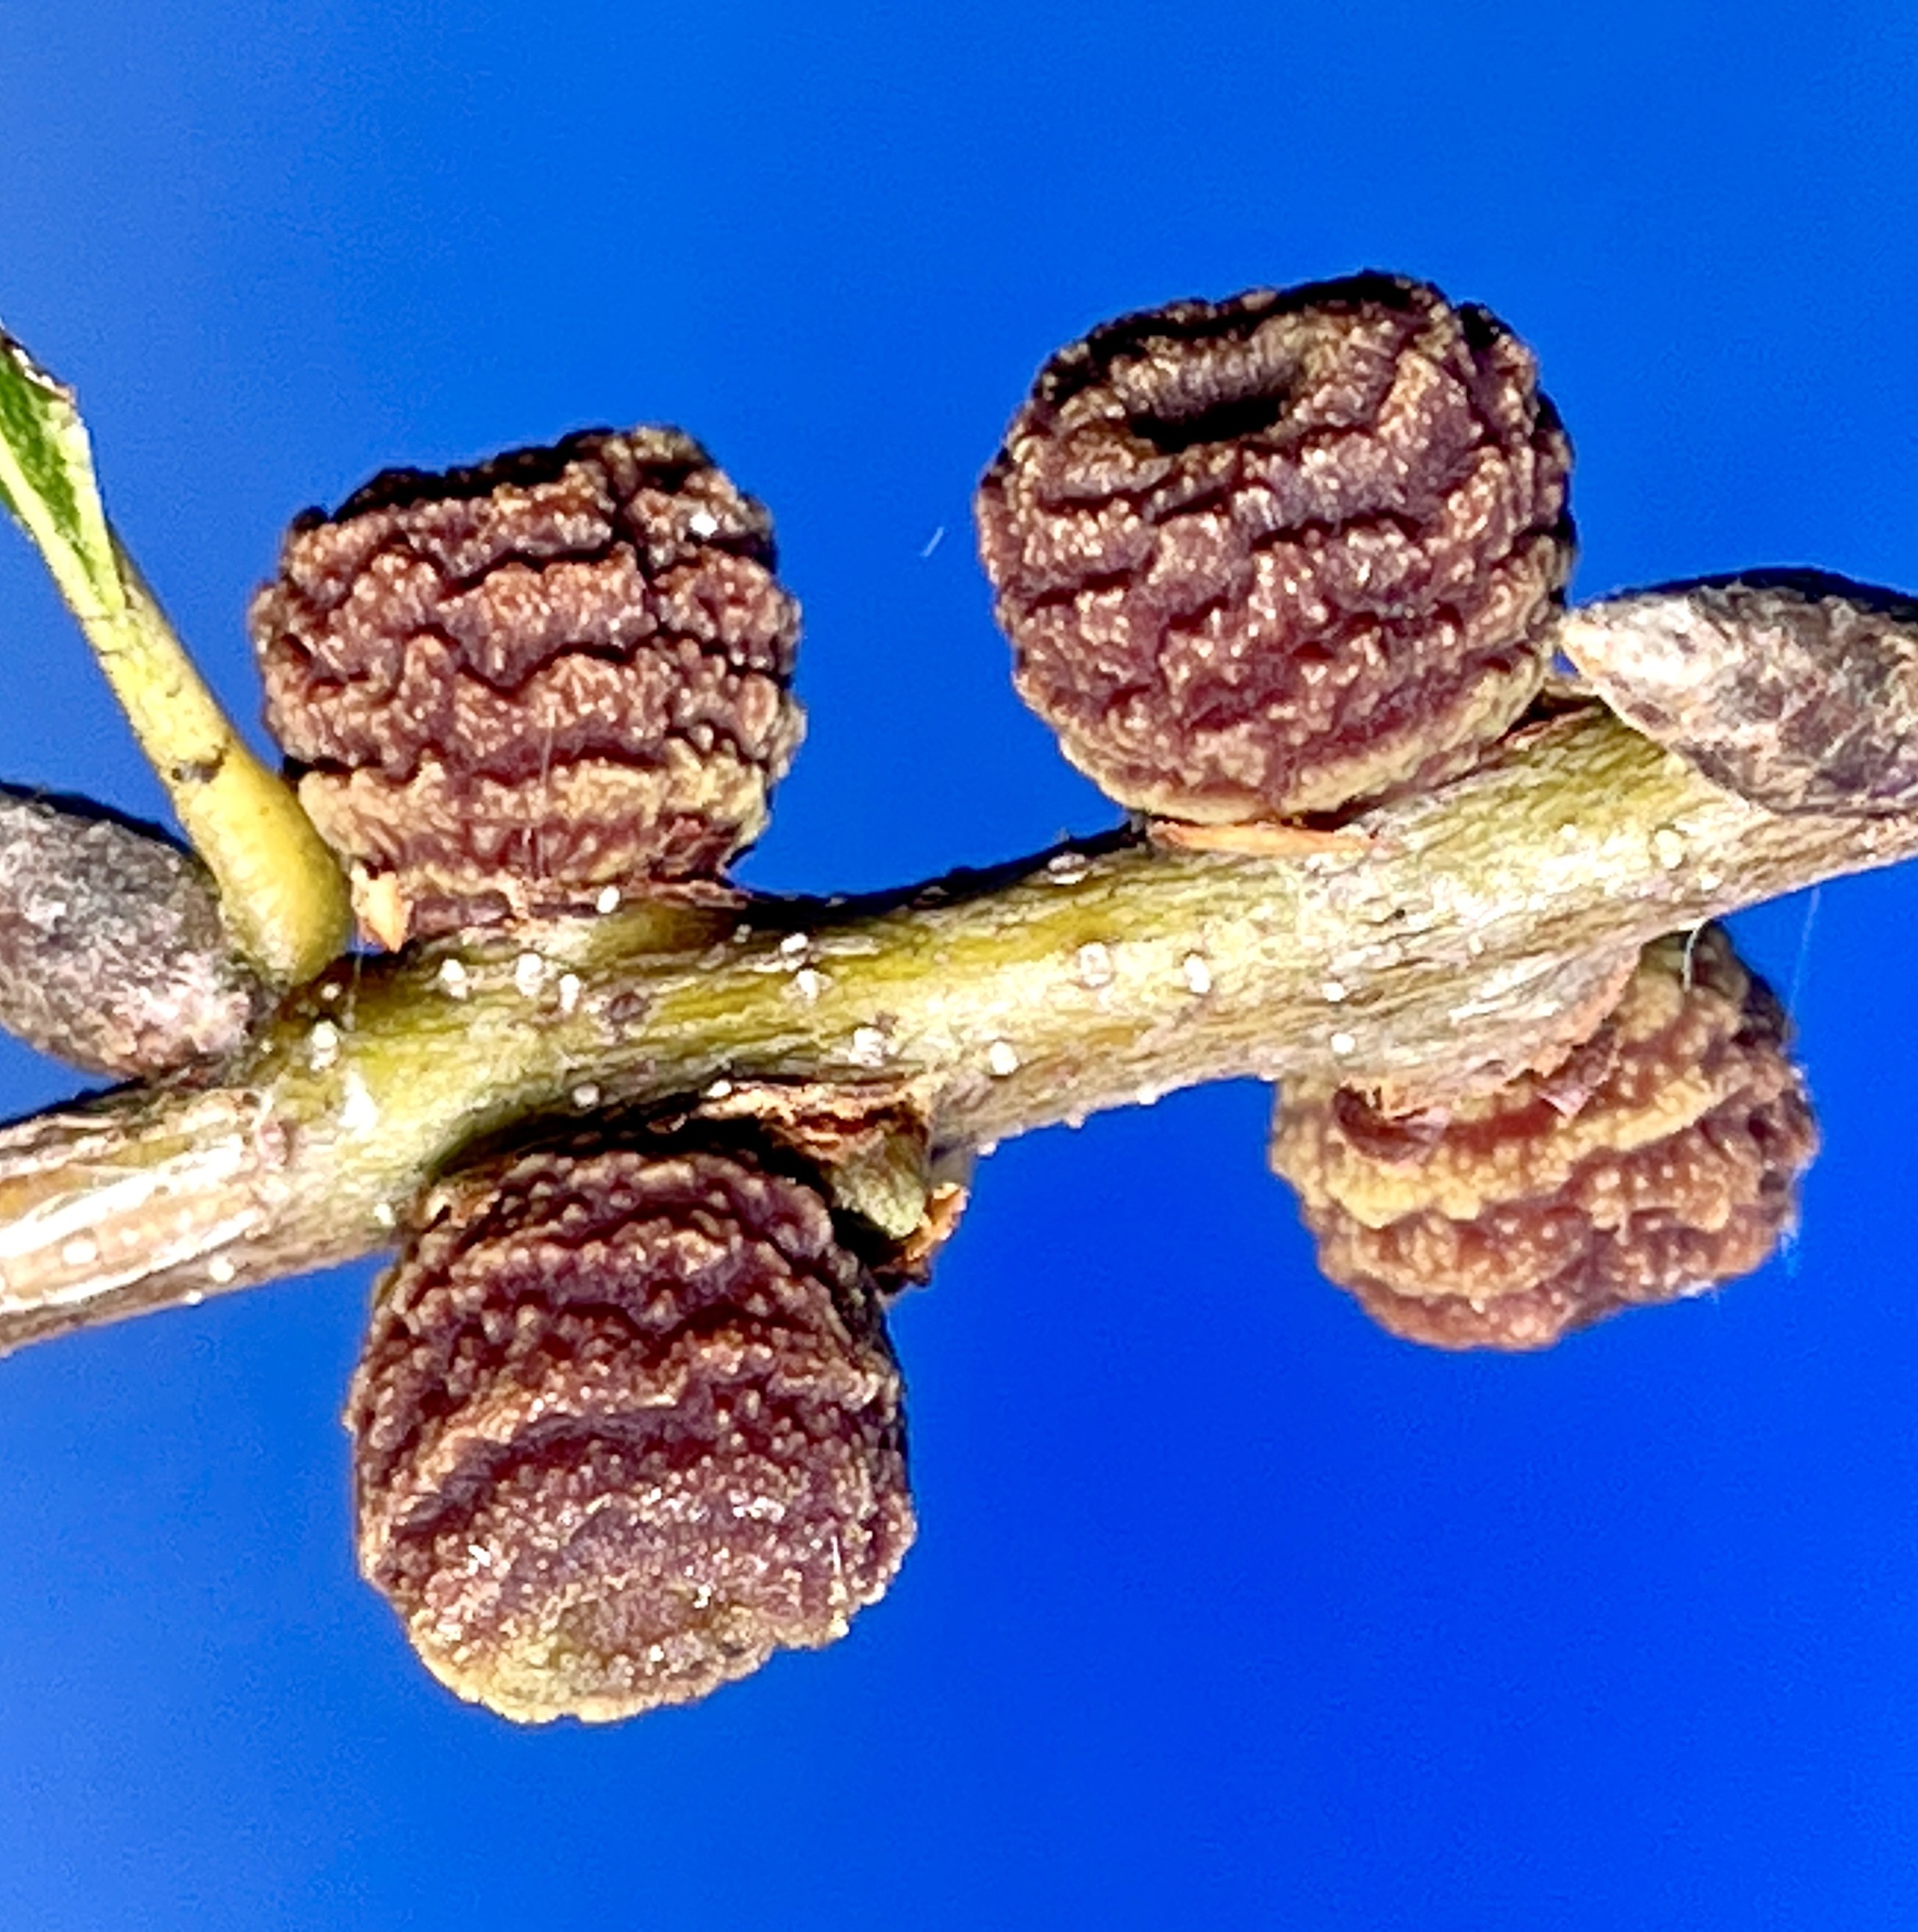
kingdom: Animalia
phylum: Arthropoda
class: Insecta
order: Hymenoptera
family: Cynipidae
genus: Kokkocynips
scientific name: Kokkocynips difficilis
